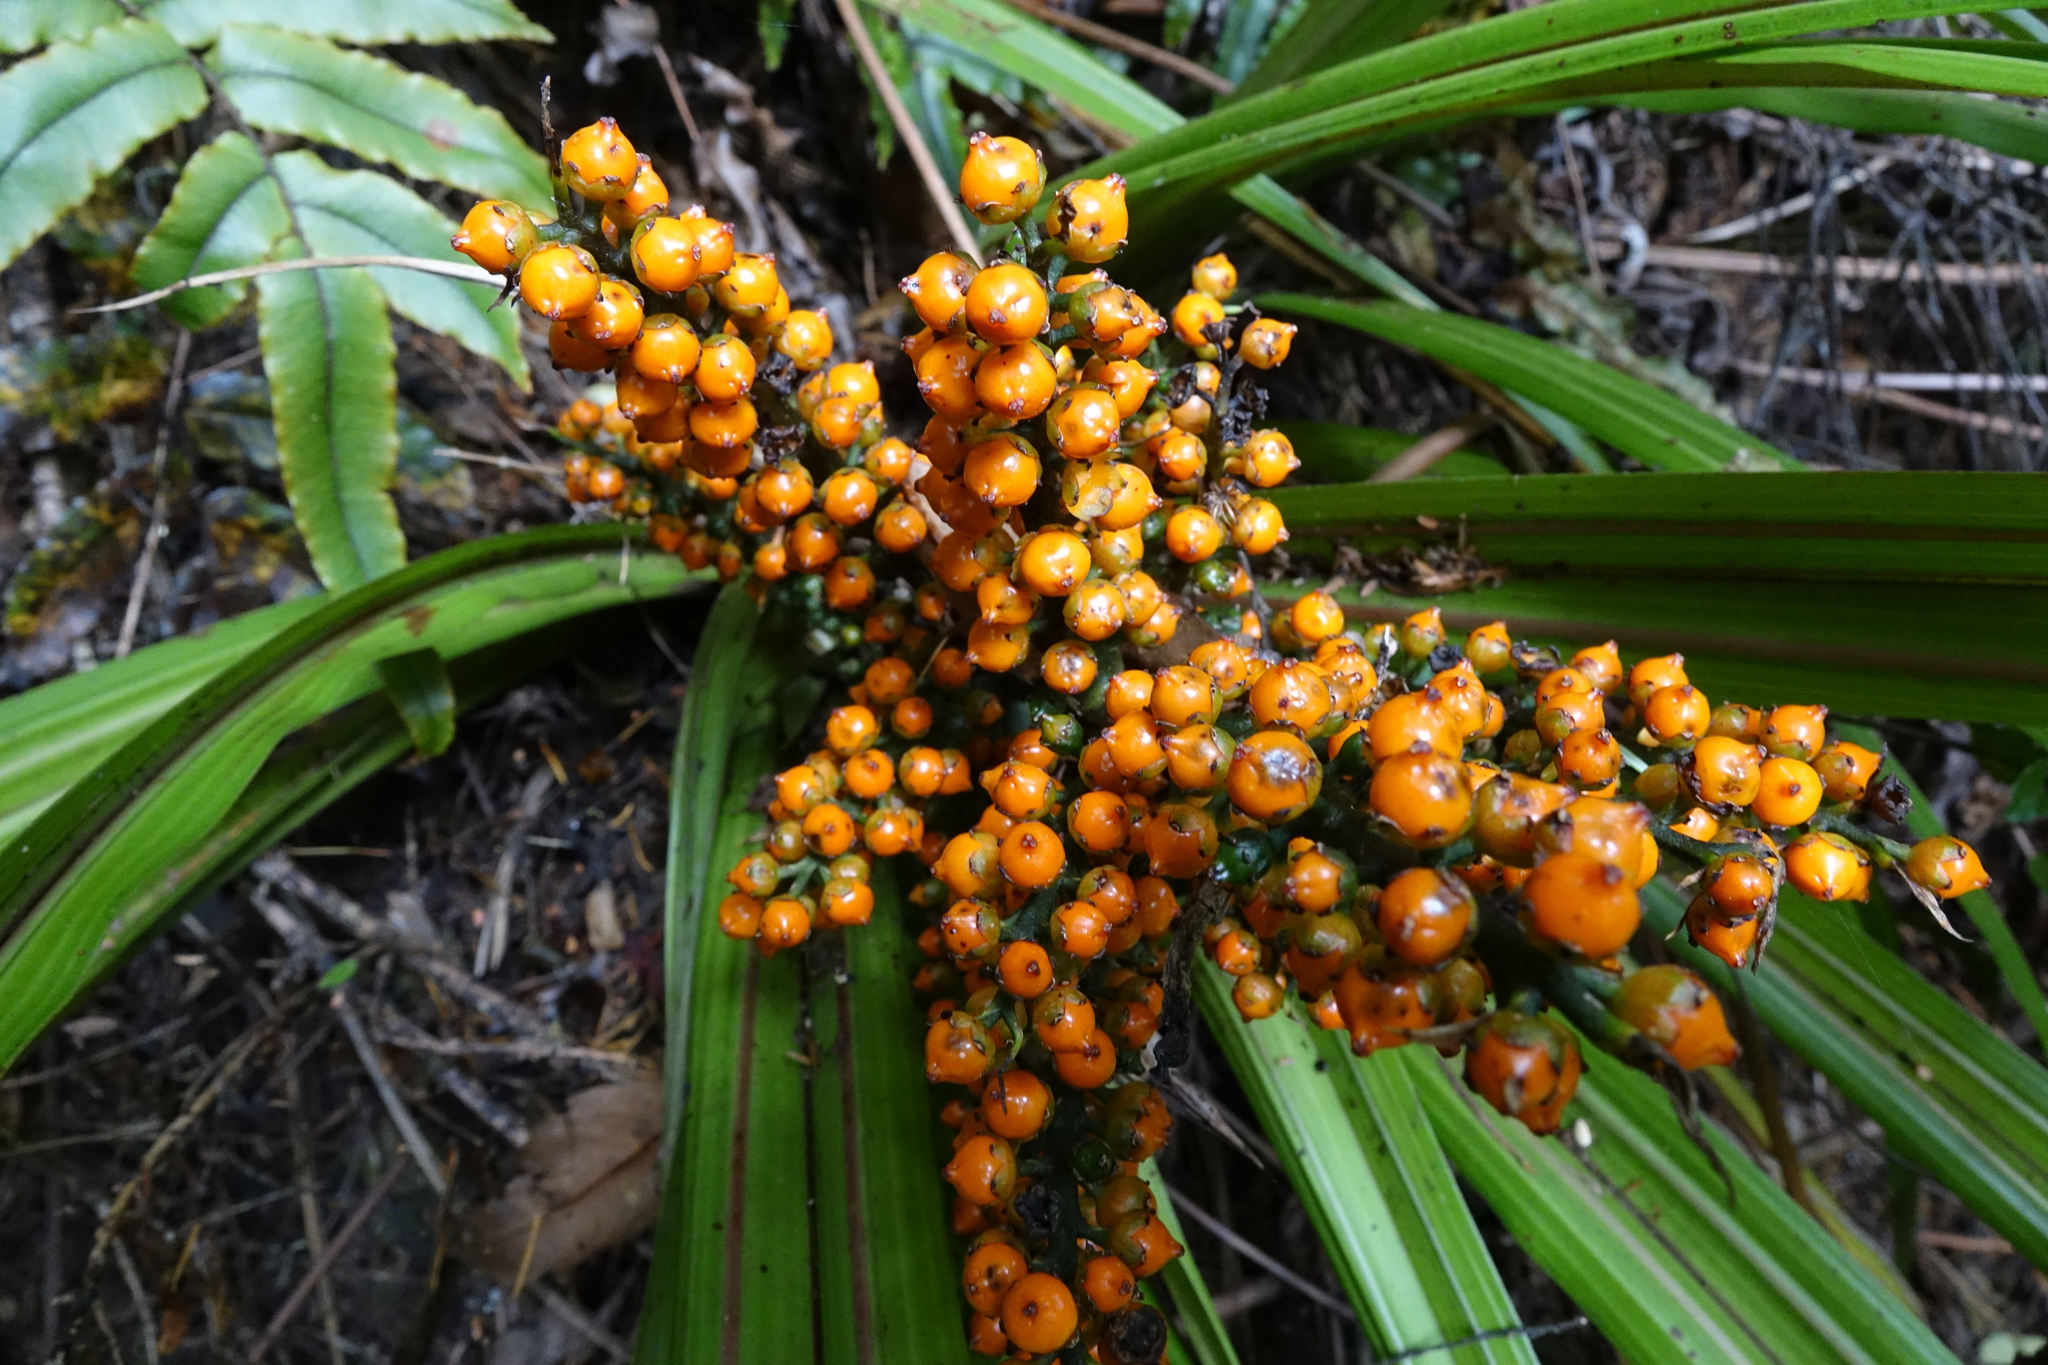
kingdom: Plantae
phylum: Tracheophyta
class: Liliopsida
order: Asparagales
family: Asteliaceae
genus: Astelia
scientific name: Astelia fragrans
